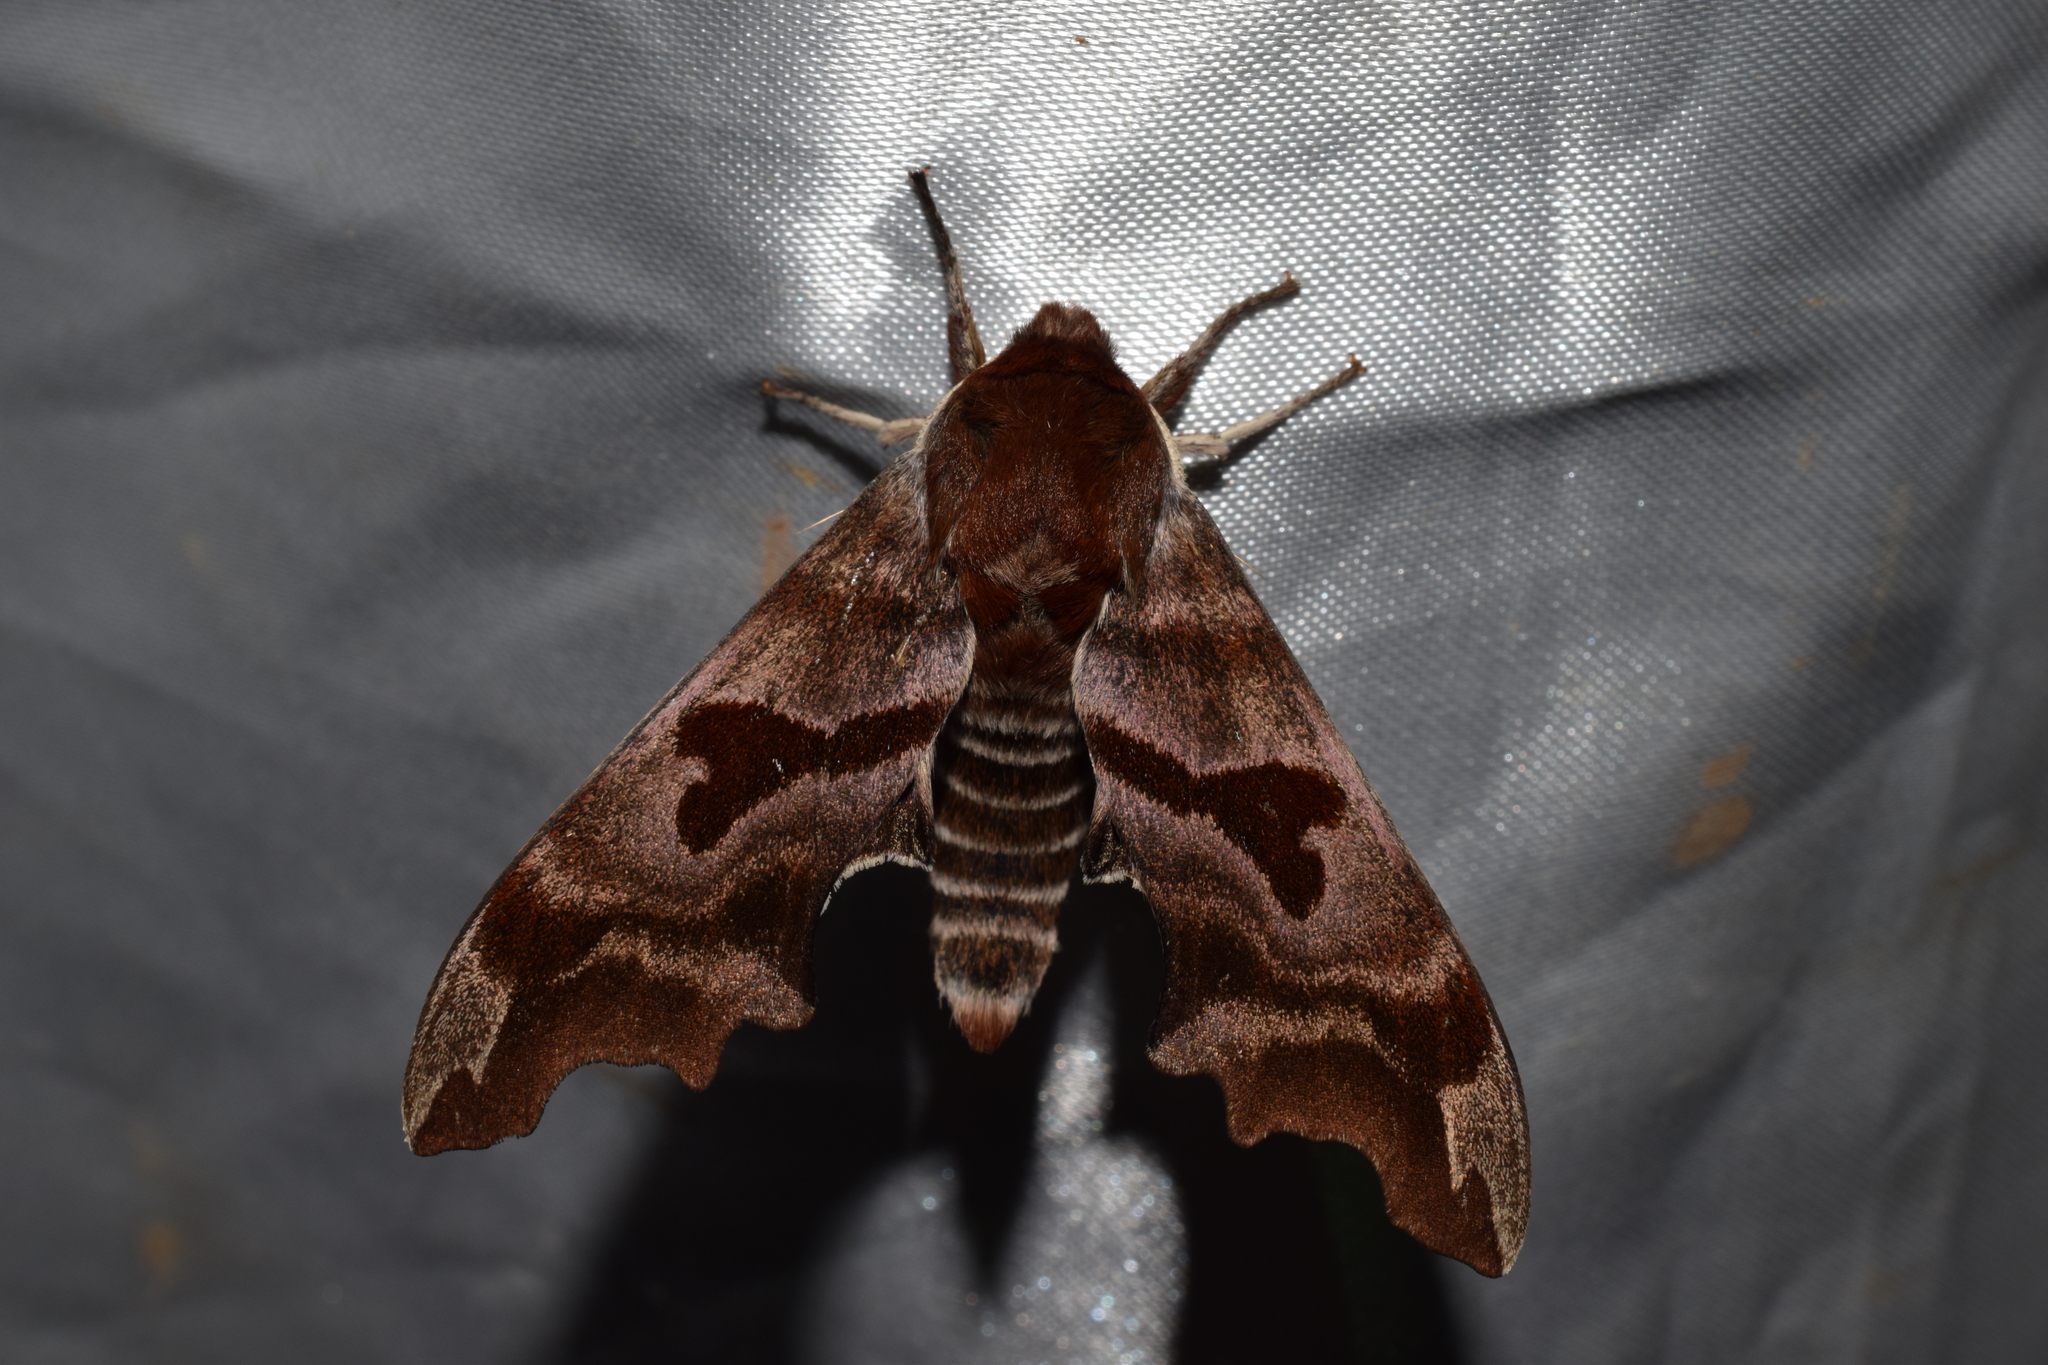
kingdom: Animalia
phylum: Arthropoda
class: Insecta
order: Lepidoptera
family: Sphingidae
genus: Mimas
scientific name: Mimas christophi
